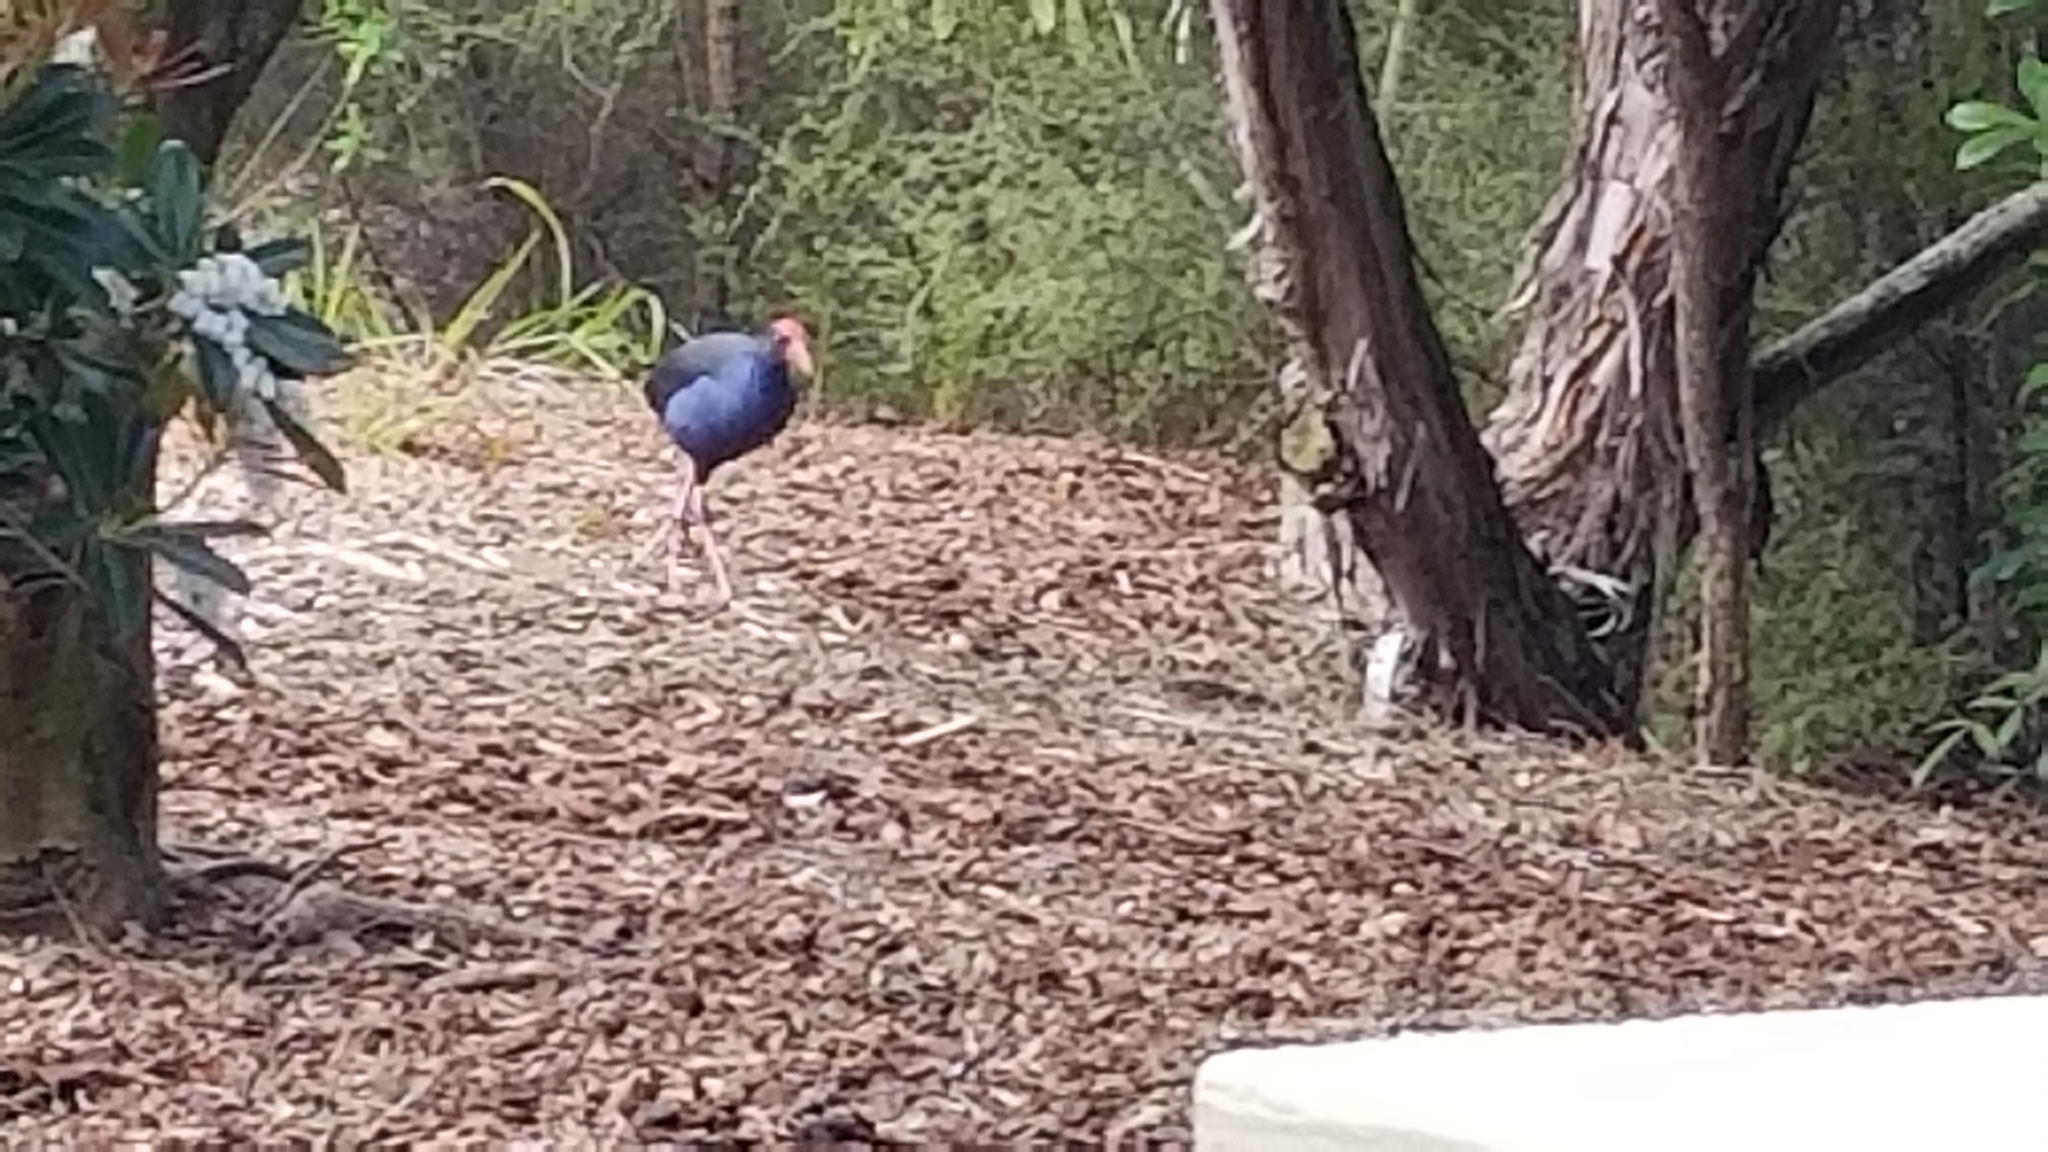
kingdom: Animalia
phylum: Chordata
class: Aves
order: Gruiformes
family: Rallidae
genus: Porphyrio
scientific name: Porphyrio melanotus
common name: Australasian swamphen
